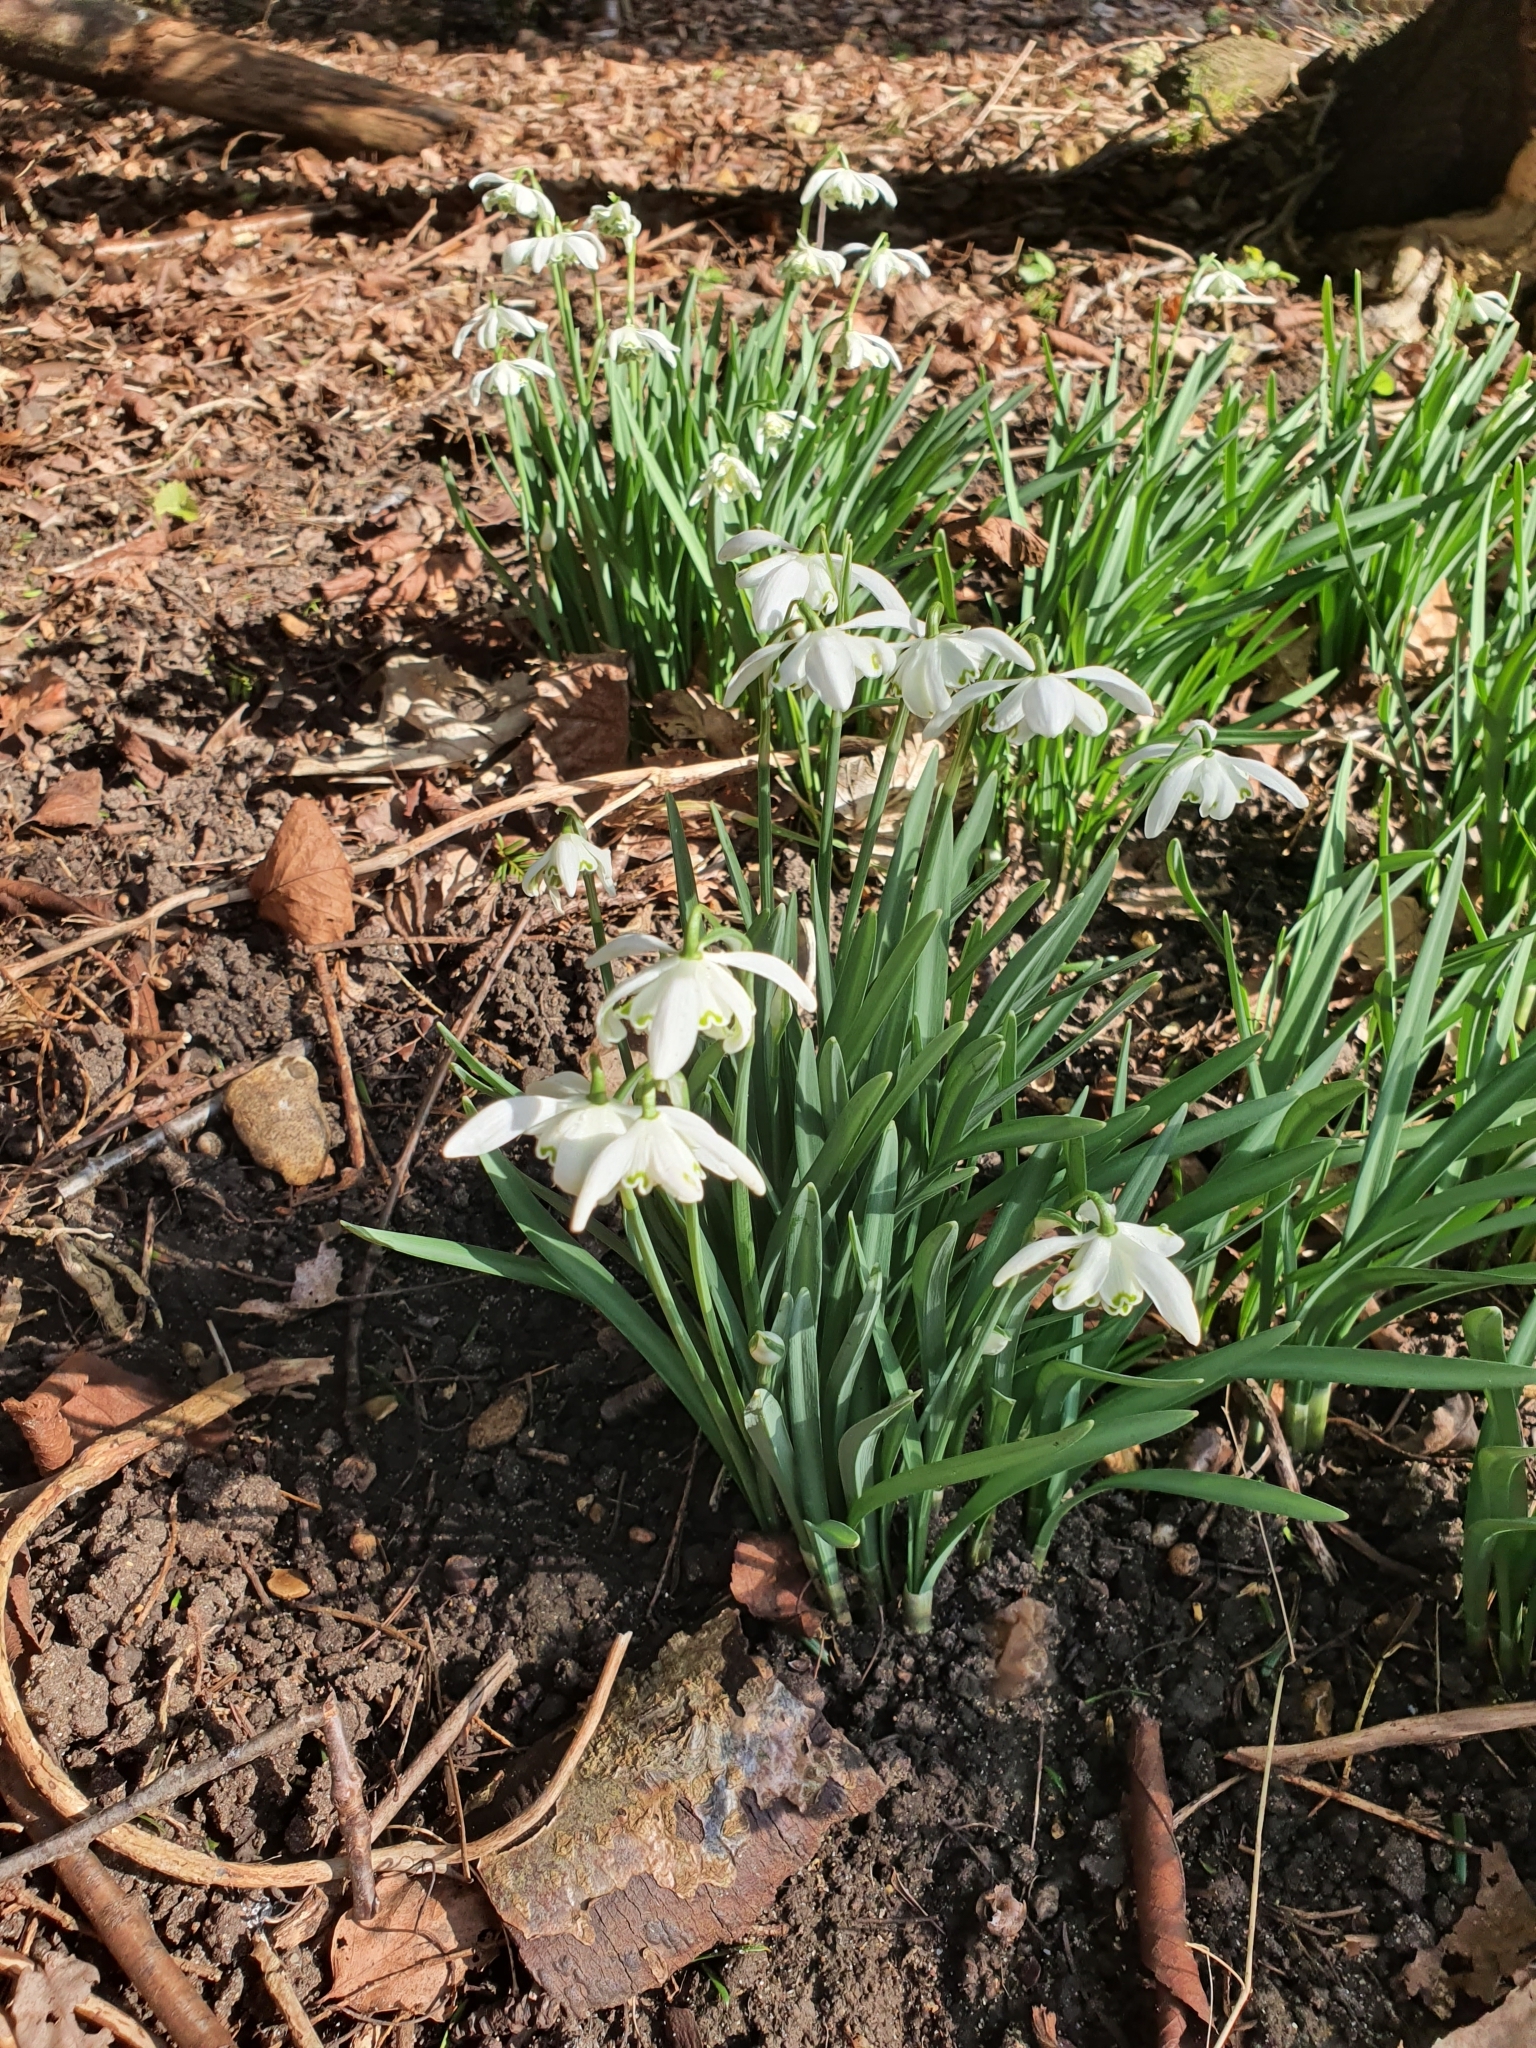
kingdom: Plantae
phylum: Tracheophyta
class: Liliopsida
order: Asparagales
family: Amaryllidaceae
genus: Galanthus
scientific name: Galanthus nivalis
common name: Snowdrop
